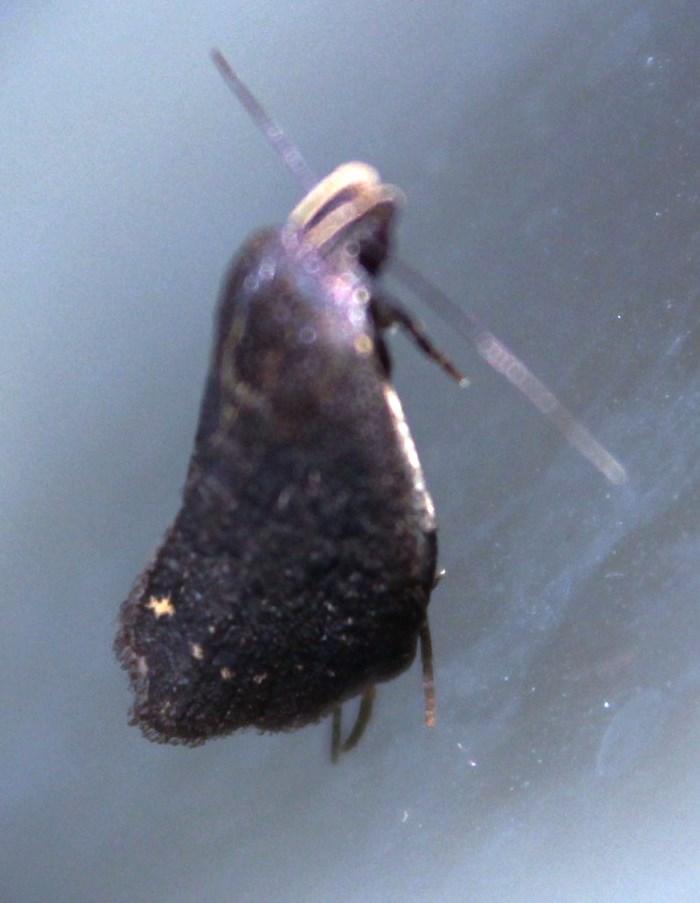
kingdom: Animalia
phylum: Arthropoda
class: Insecta
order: Lepidoptera
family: Erebidae
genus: Nodaria
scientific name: Nodaria nodosalis
